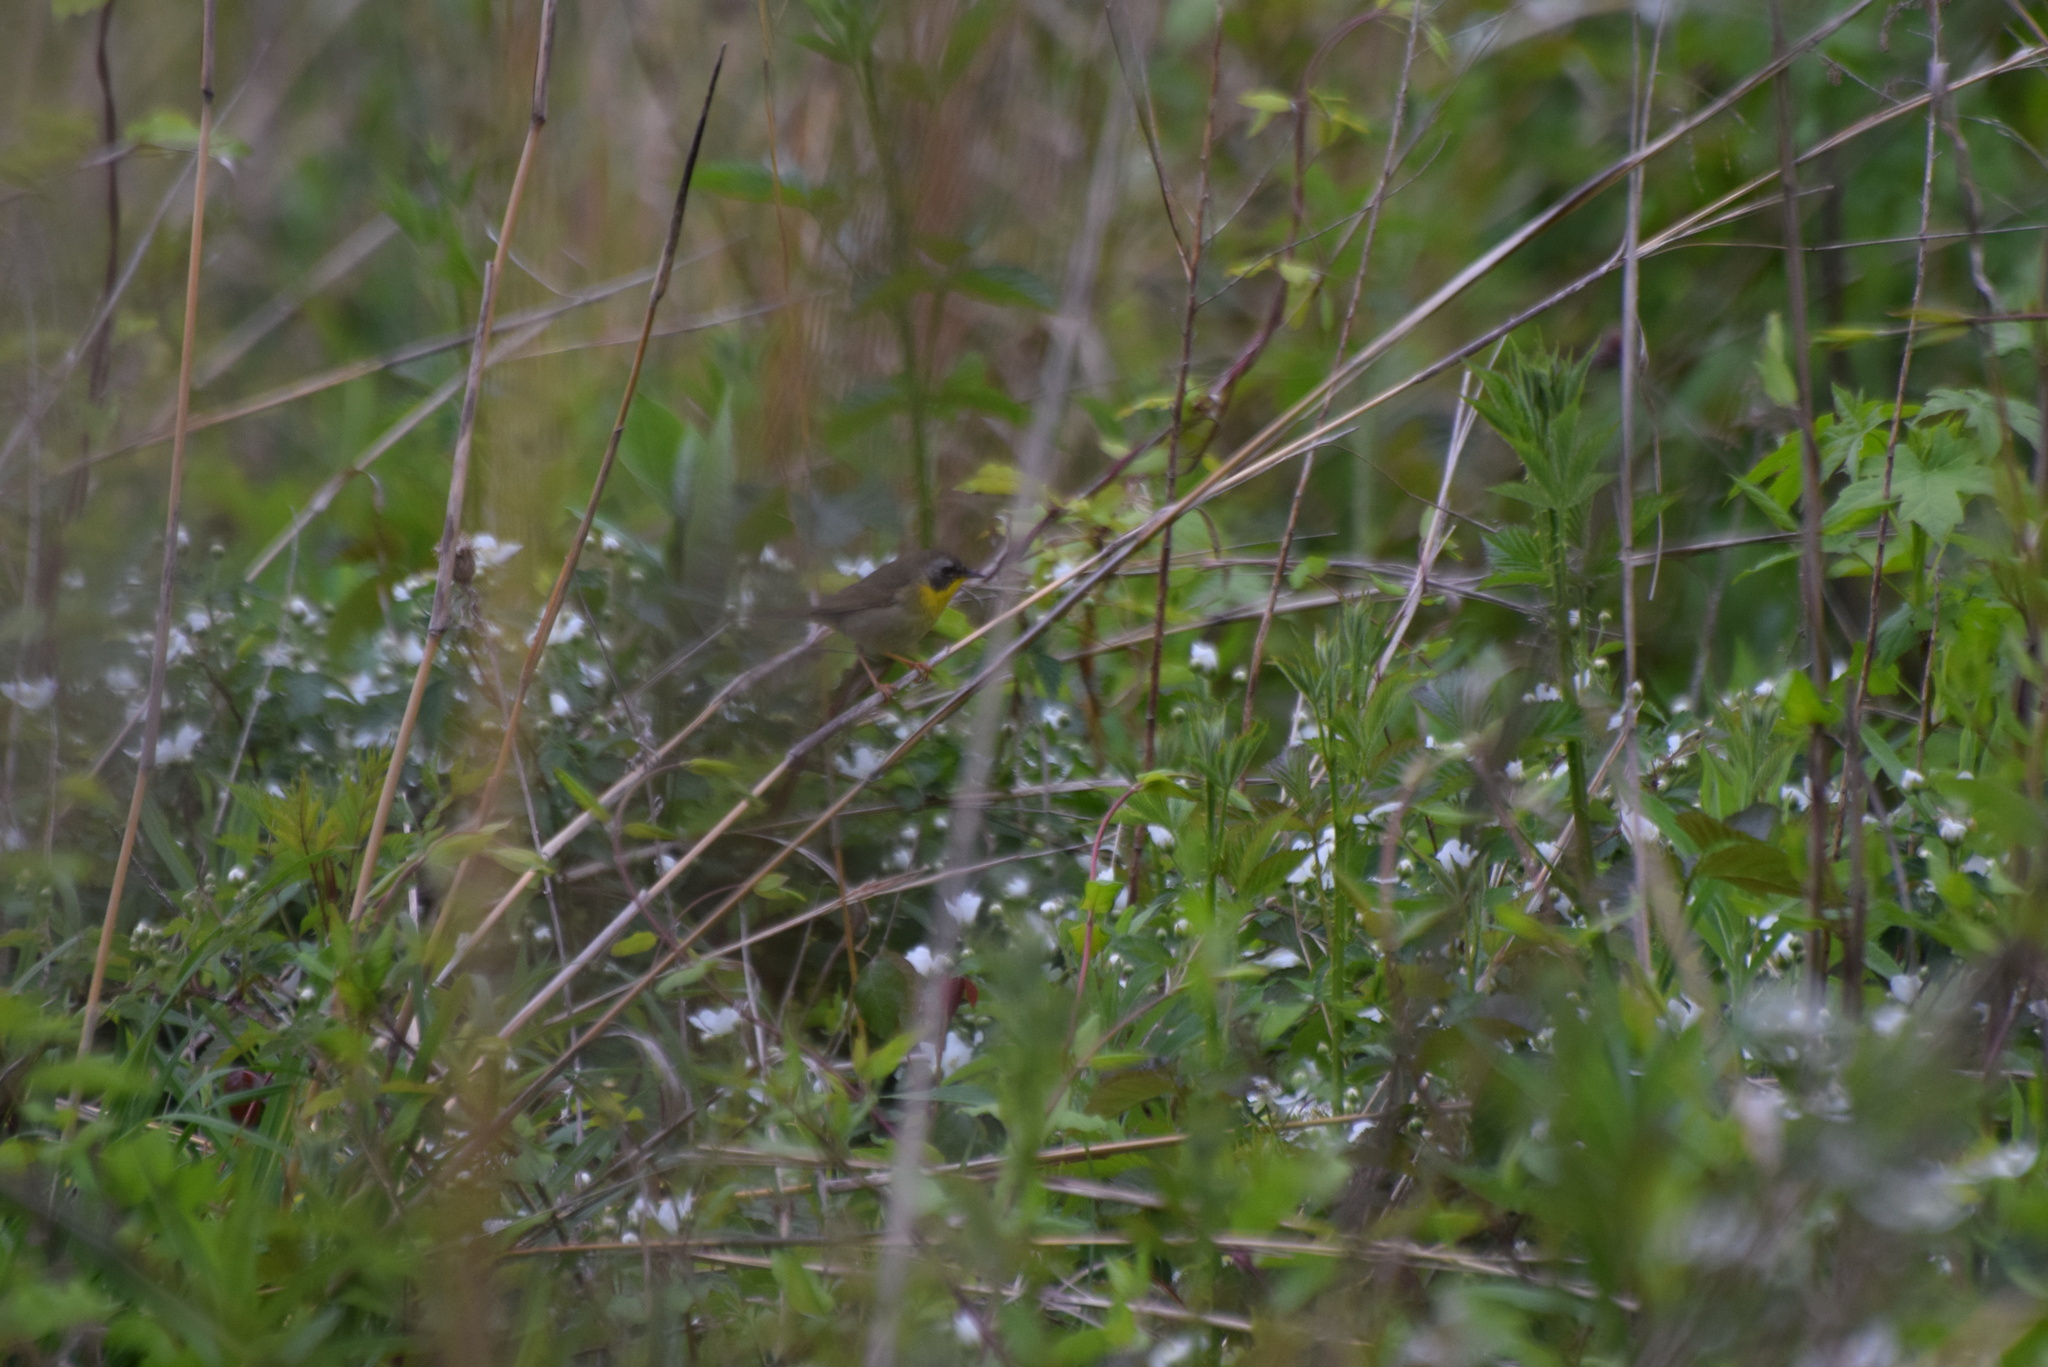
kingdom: Animalia
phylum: Chordata
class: Aves
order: Passeriformes
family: Parulidae
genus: Geothlypis
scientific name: Geothlypis trichas
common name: Common yellowthroat
